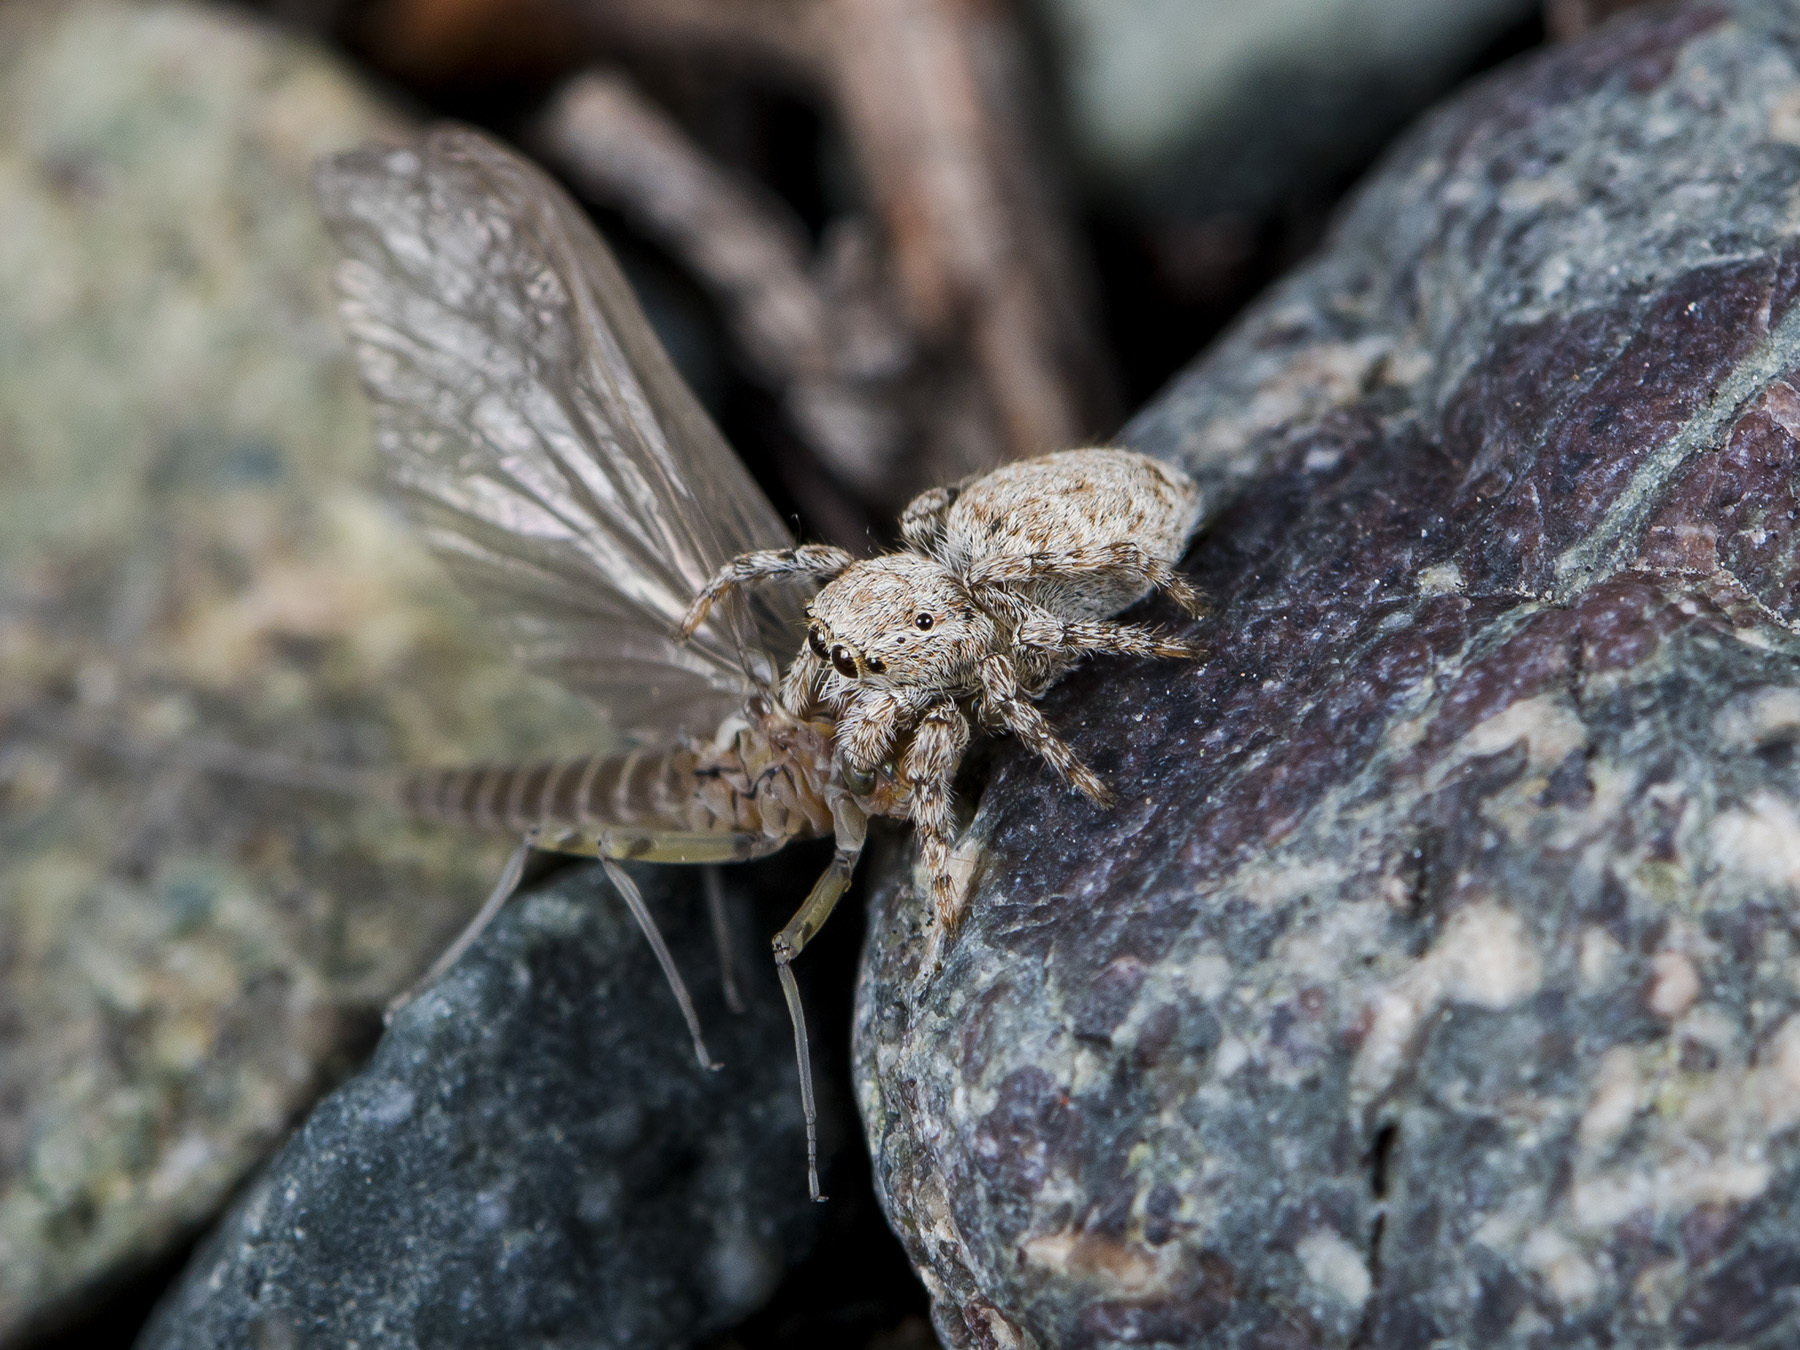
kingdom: Animalia
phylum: Arthropoda
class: Arachnida
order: Araneae
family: Salticidae
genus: Attulus
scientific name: Attulus avocator
